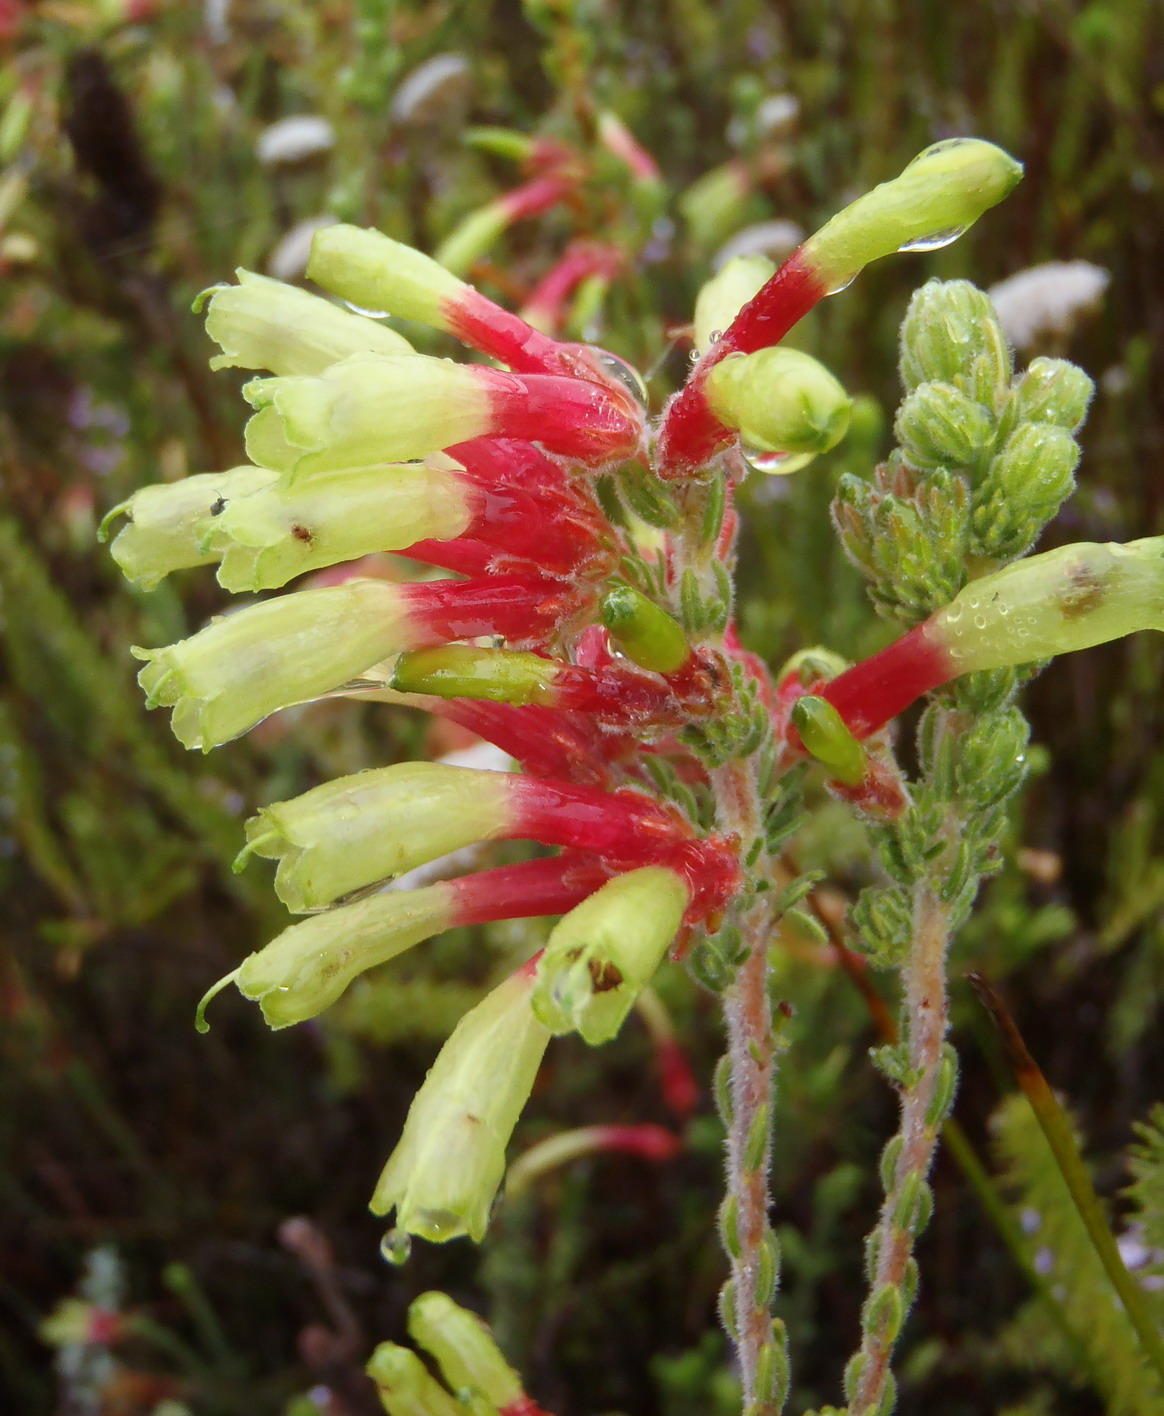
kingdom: Plantae
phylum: Tracheophyta
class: Magnoliopsida
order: Ericales
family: Ericaceae
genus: Erica
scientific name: Erica unicolor
